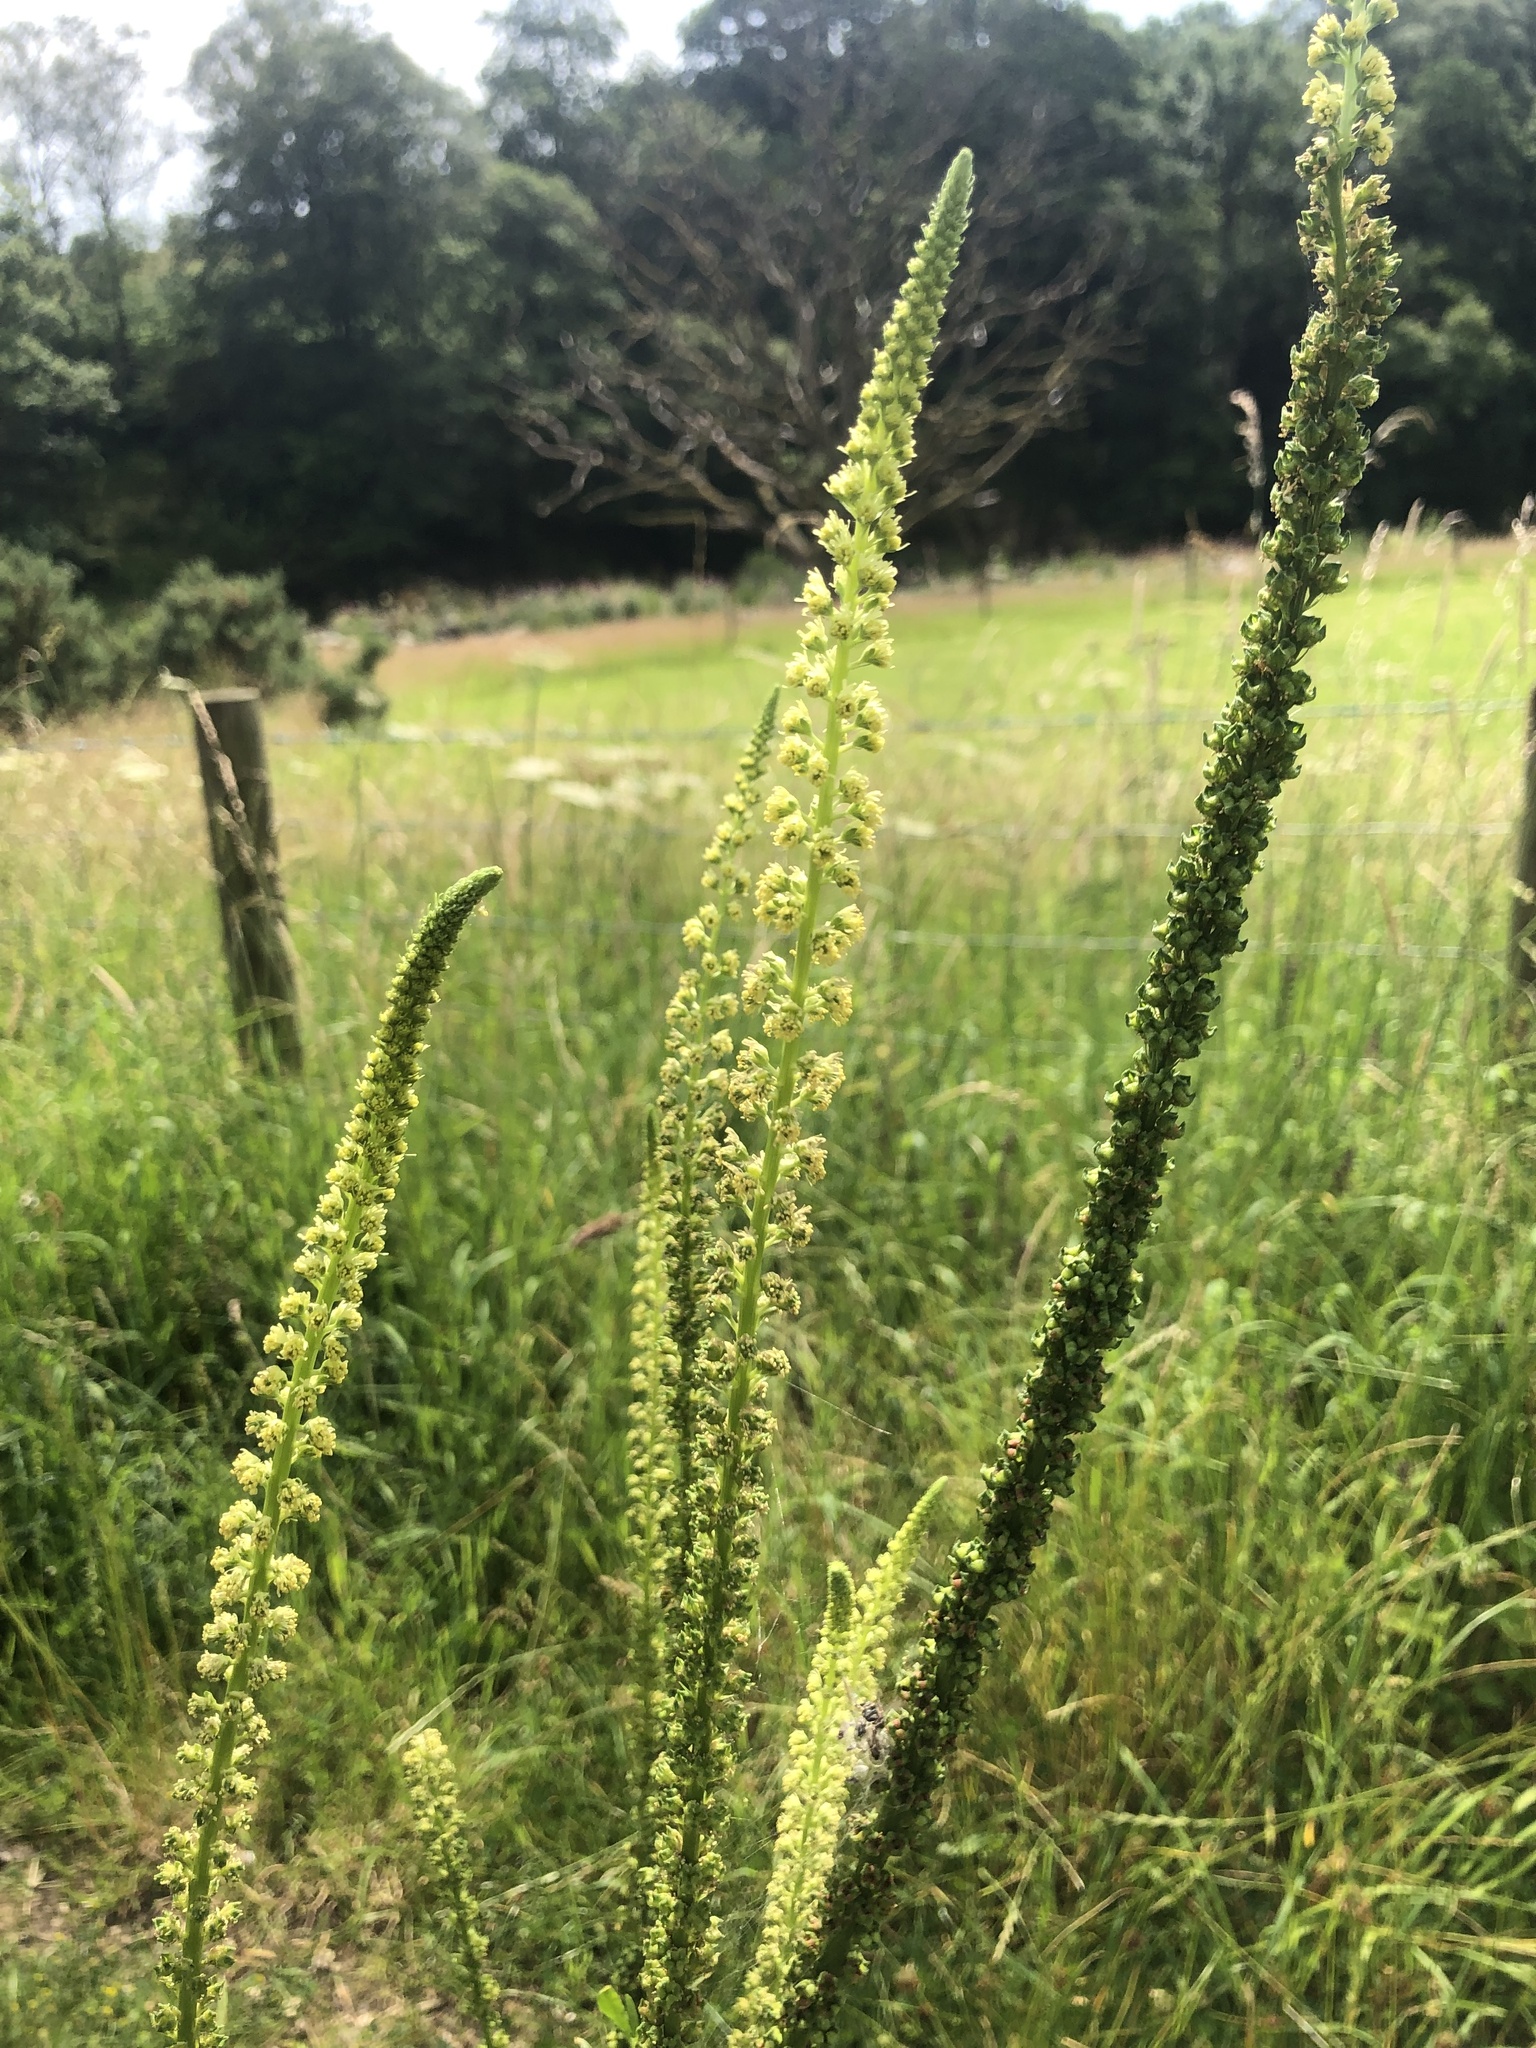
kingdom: Plantae
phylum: Tracheophyta
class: Magnoliopsida
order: Brassicales
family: Resedaceae
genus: Reseda
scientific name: Reseda luteola
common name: Weld
